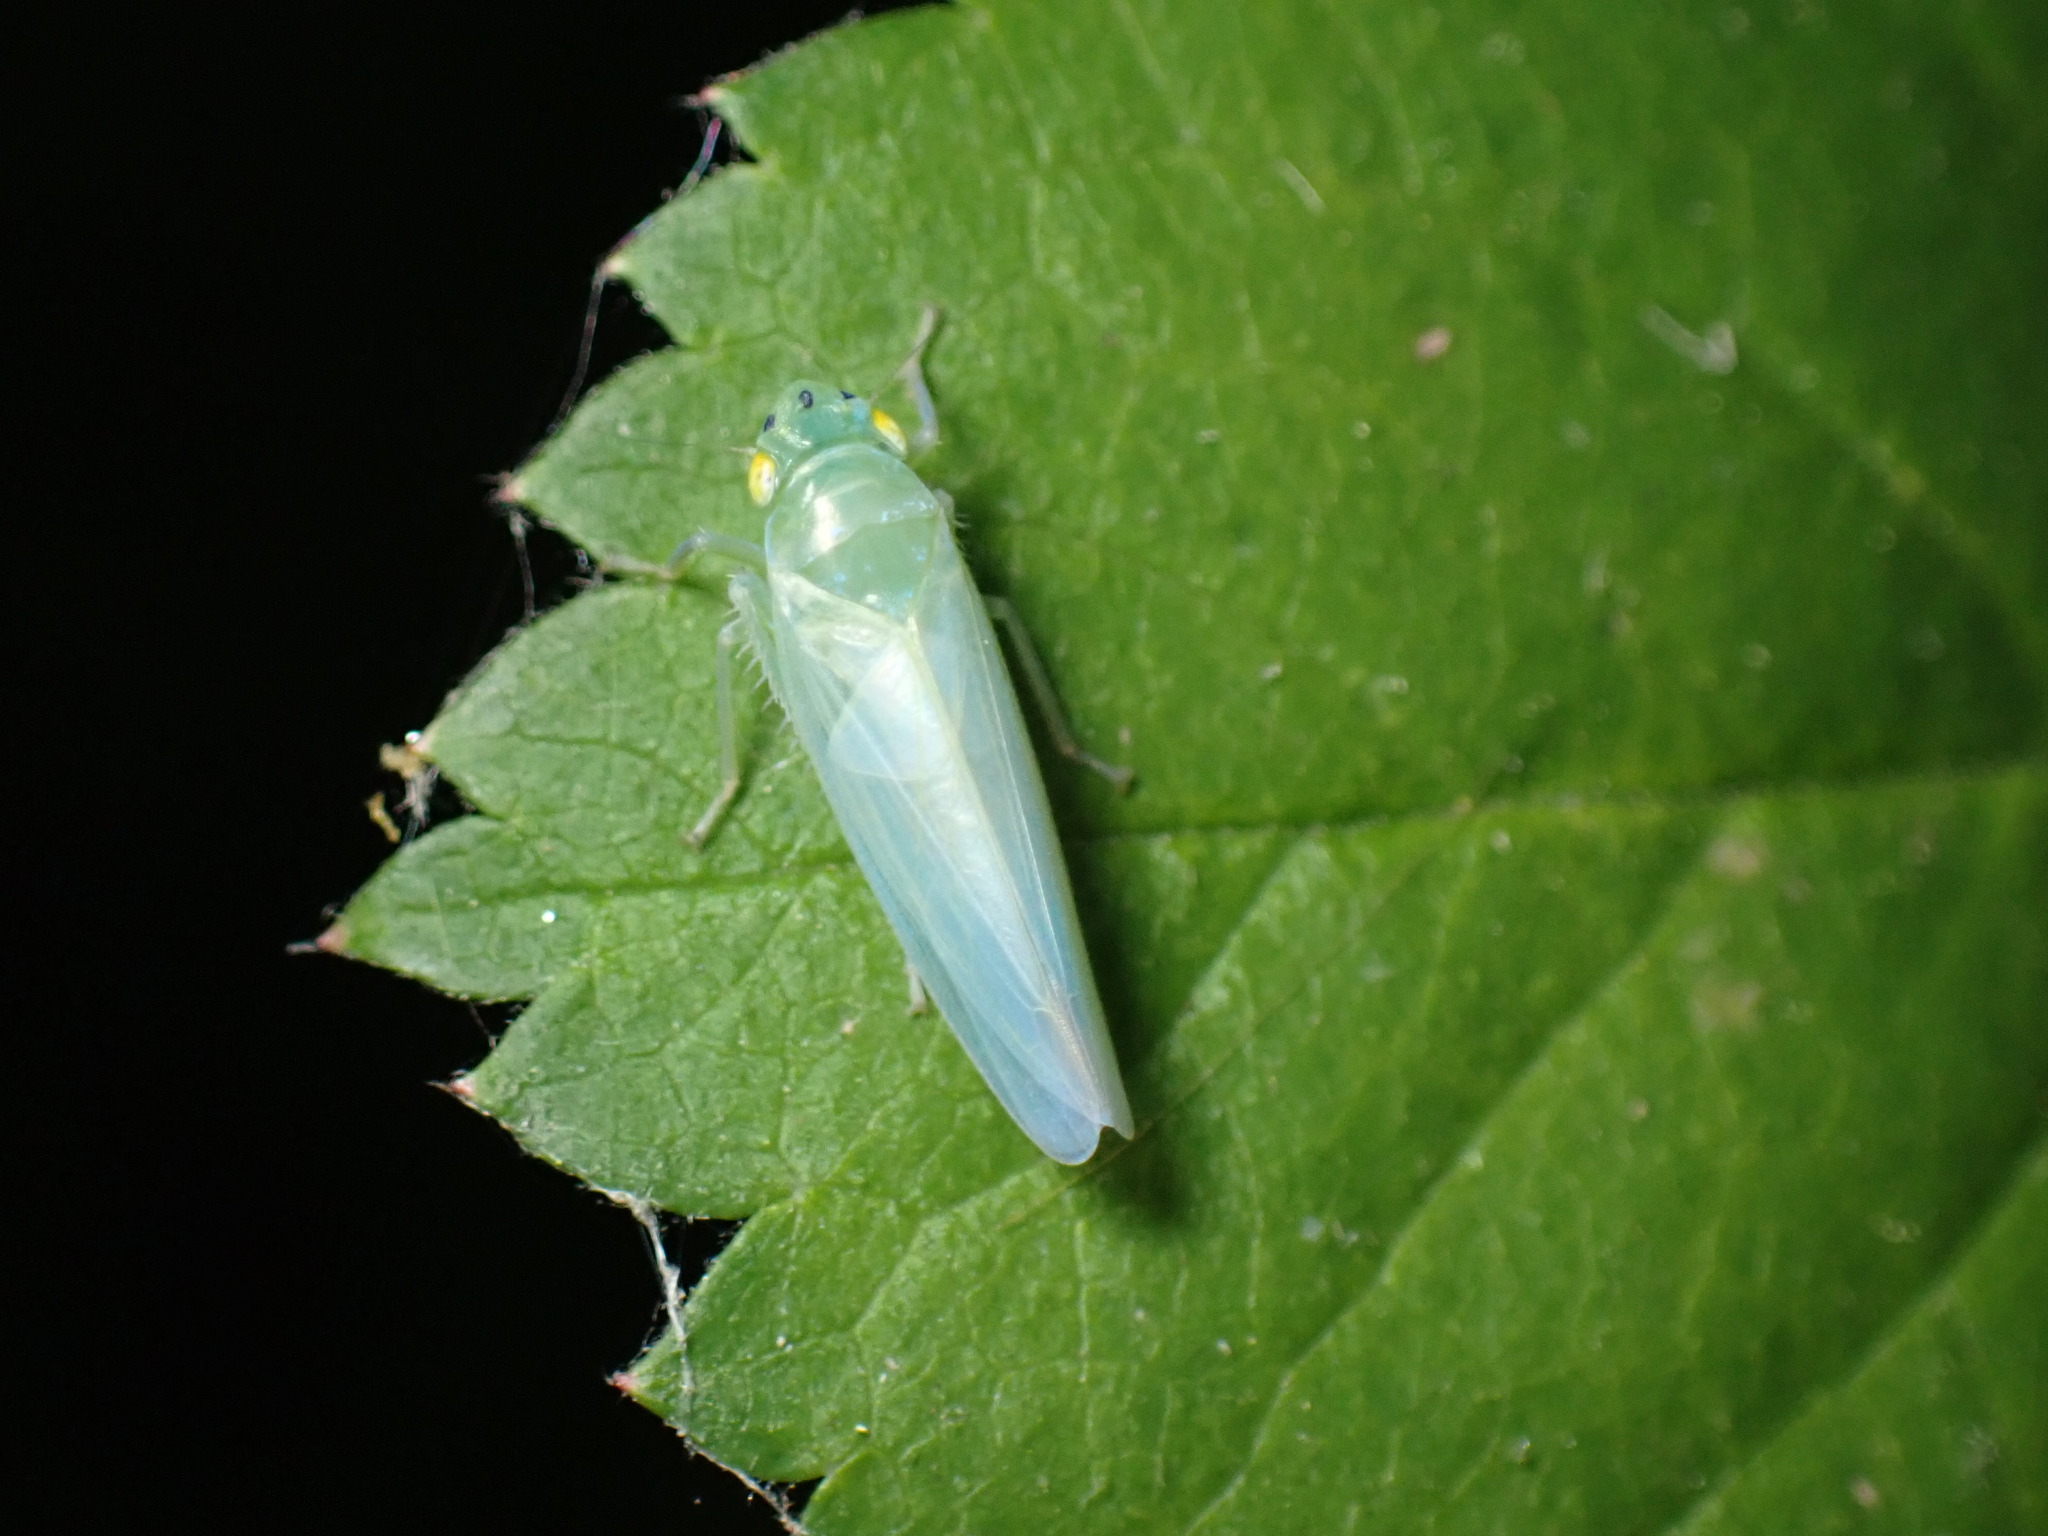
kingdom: Animalia
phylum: Arthropoda
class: Insecta
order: Hemiptera
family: Cicadellidae
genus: Pagaronia
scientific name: Pagaronia minor
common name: Leafhopper
